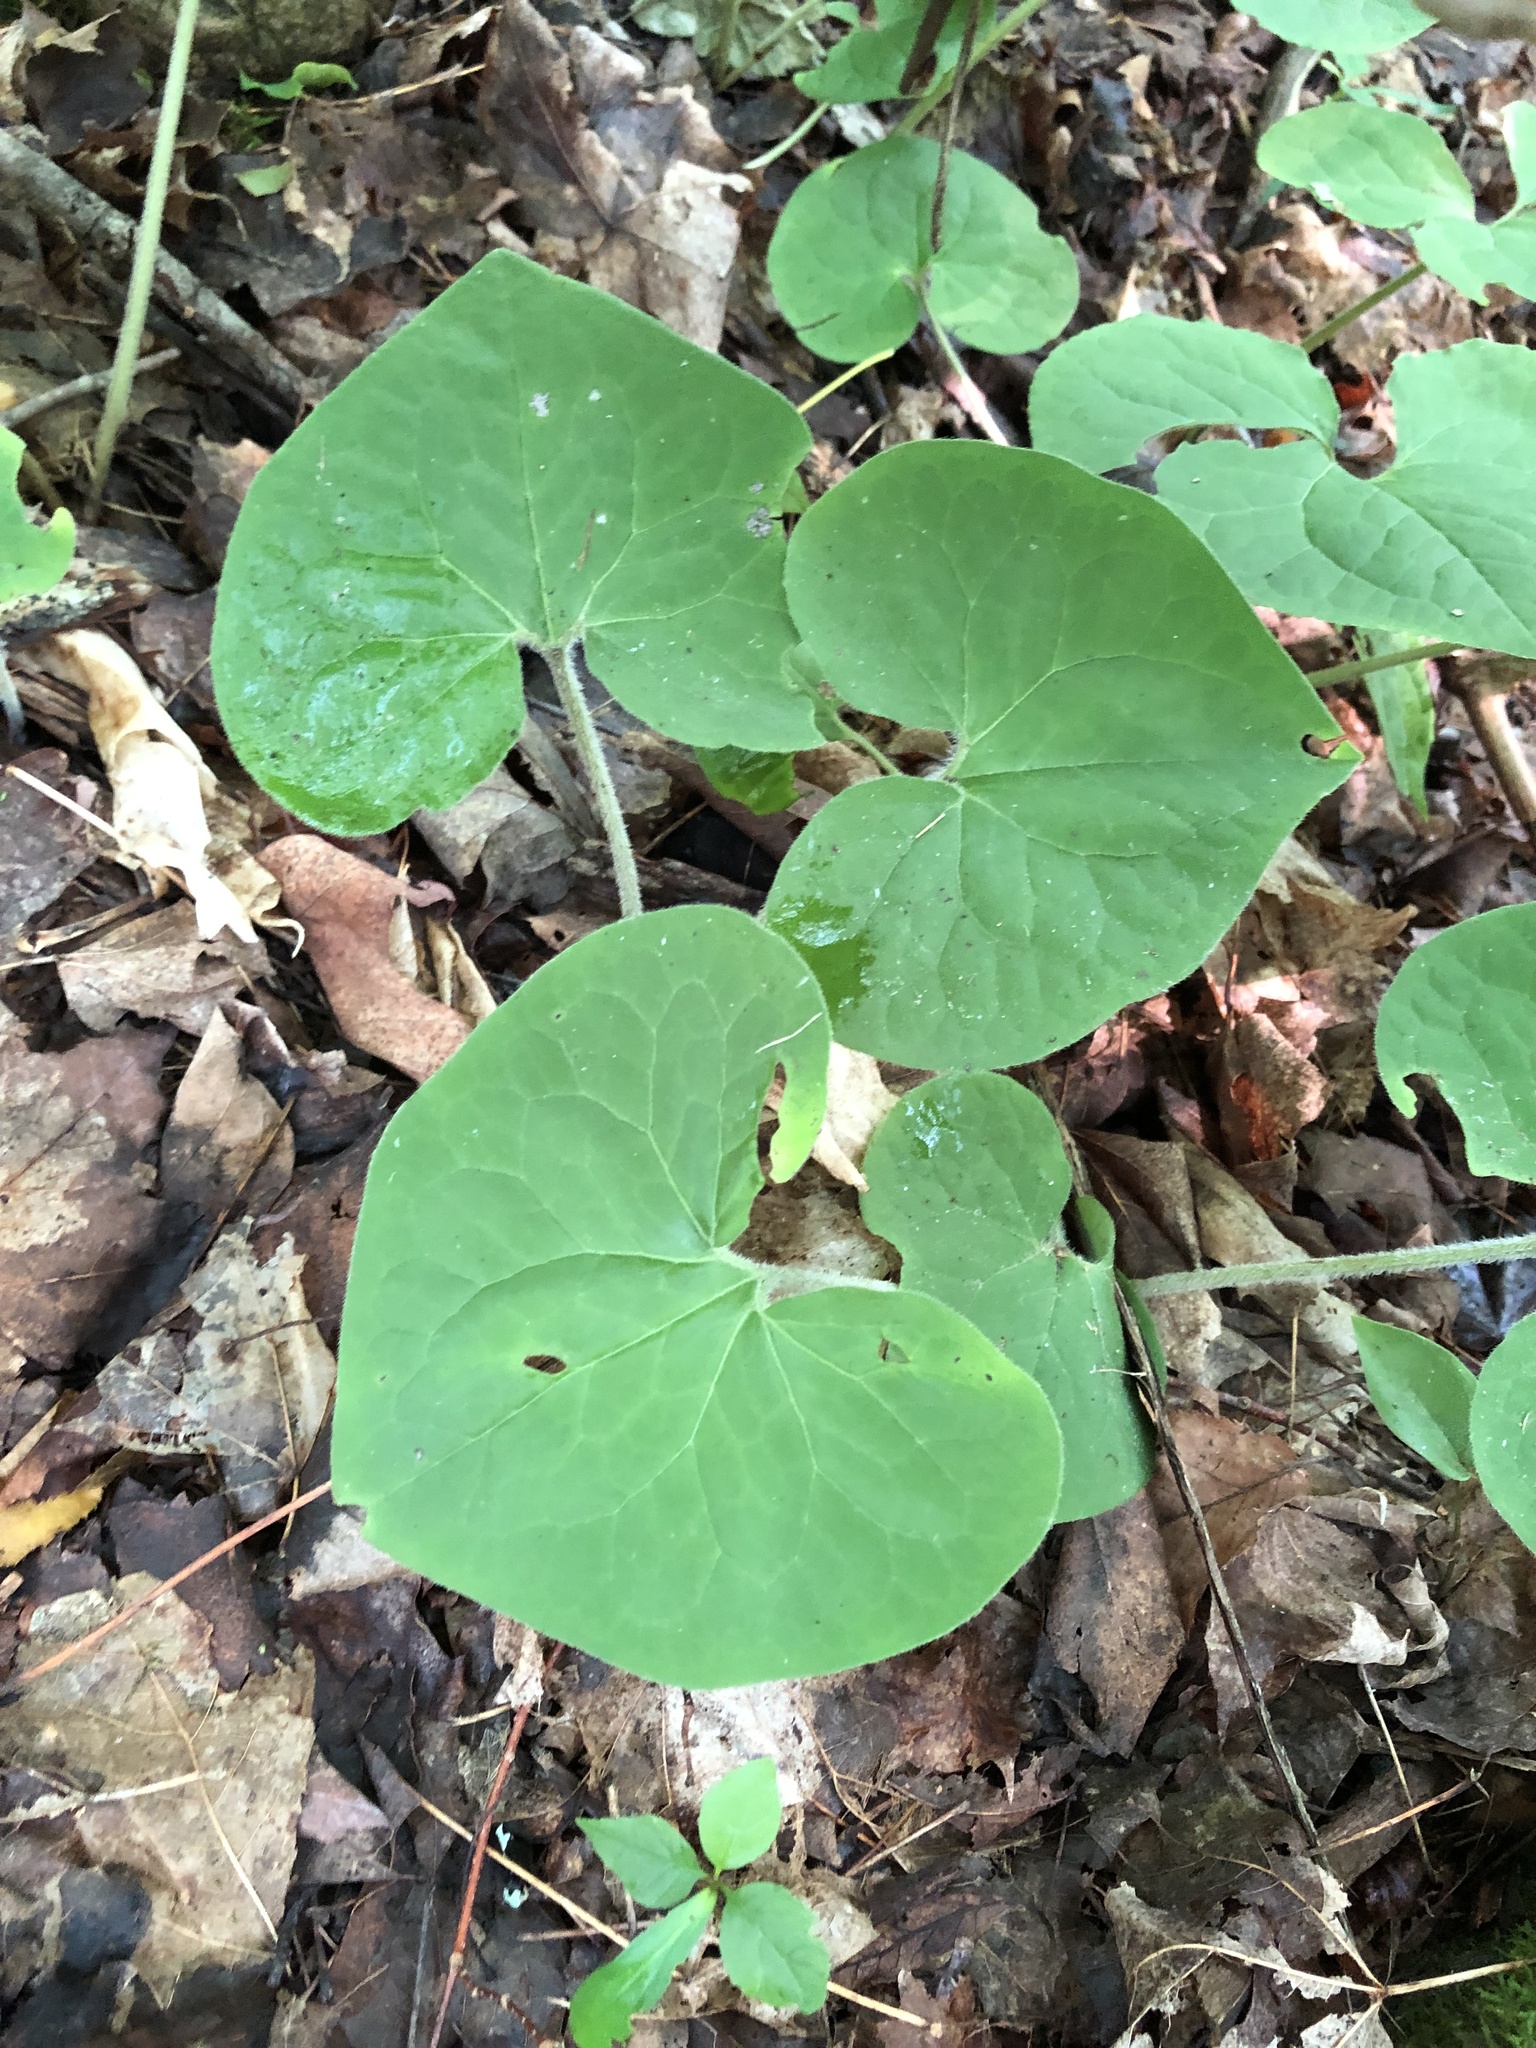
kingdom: Plantae
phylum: Tracheophyta
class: Magnoliopsida
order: Piperales
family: Aristolochiaceae
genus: Asarum
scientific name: Asarum canadense
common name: Wild ginger
